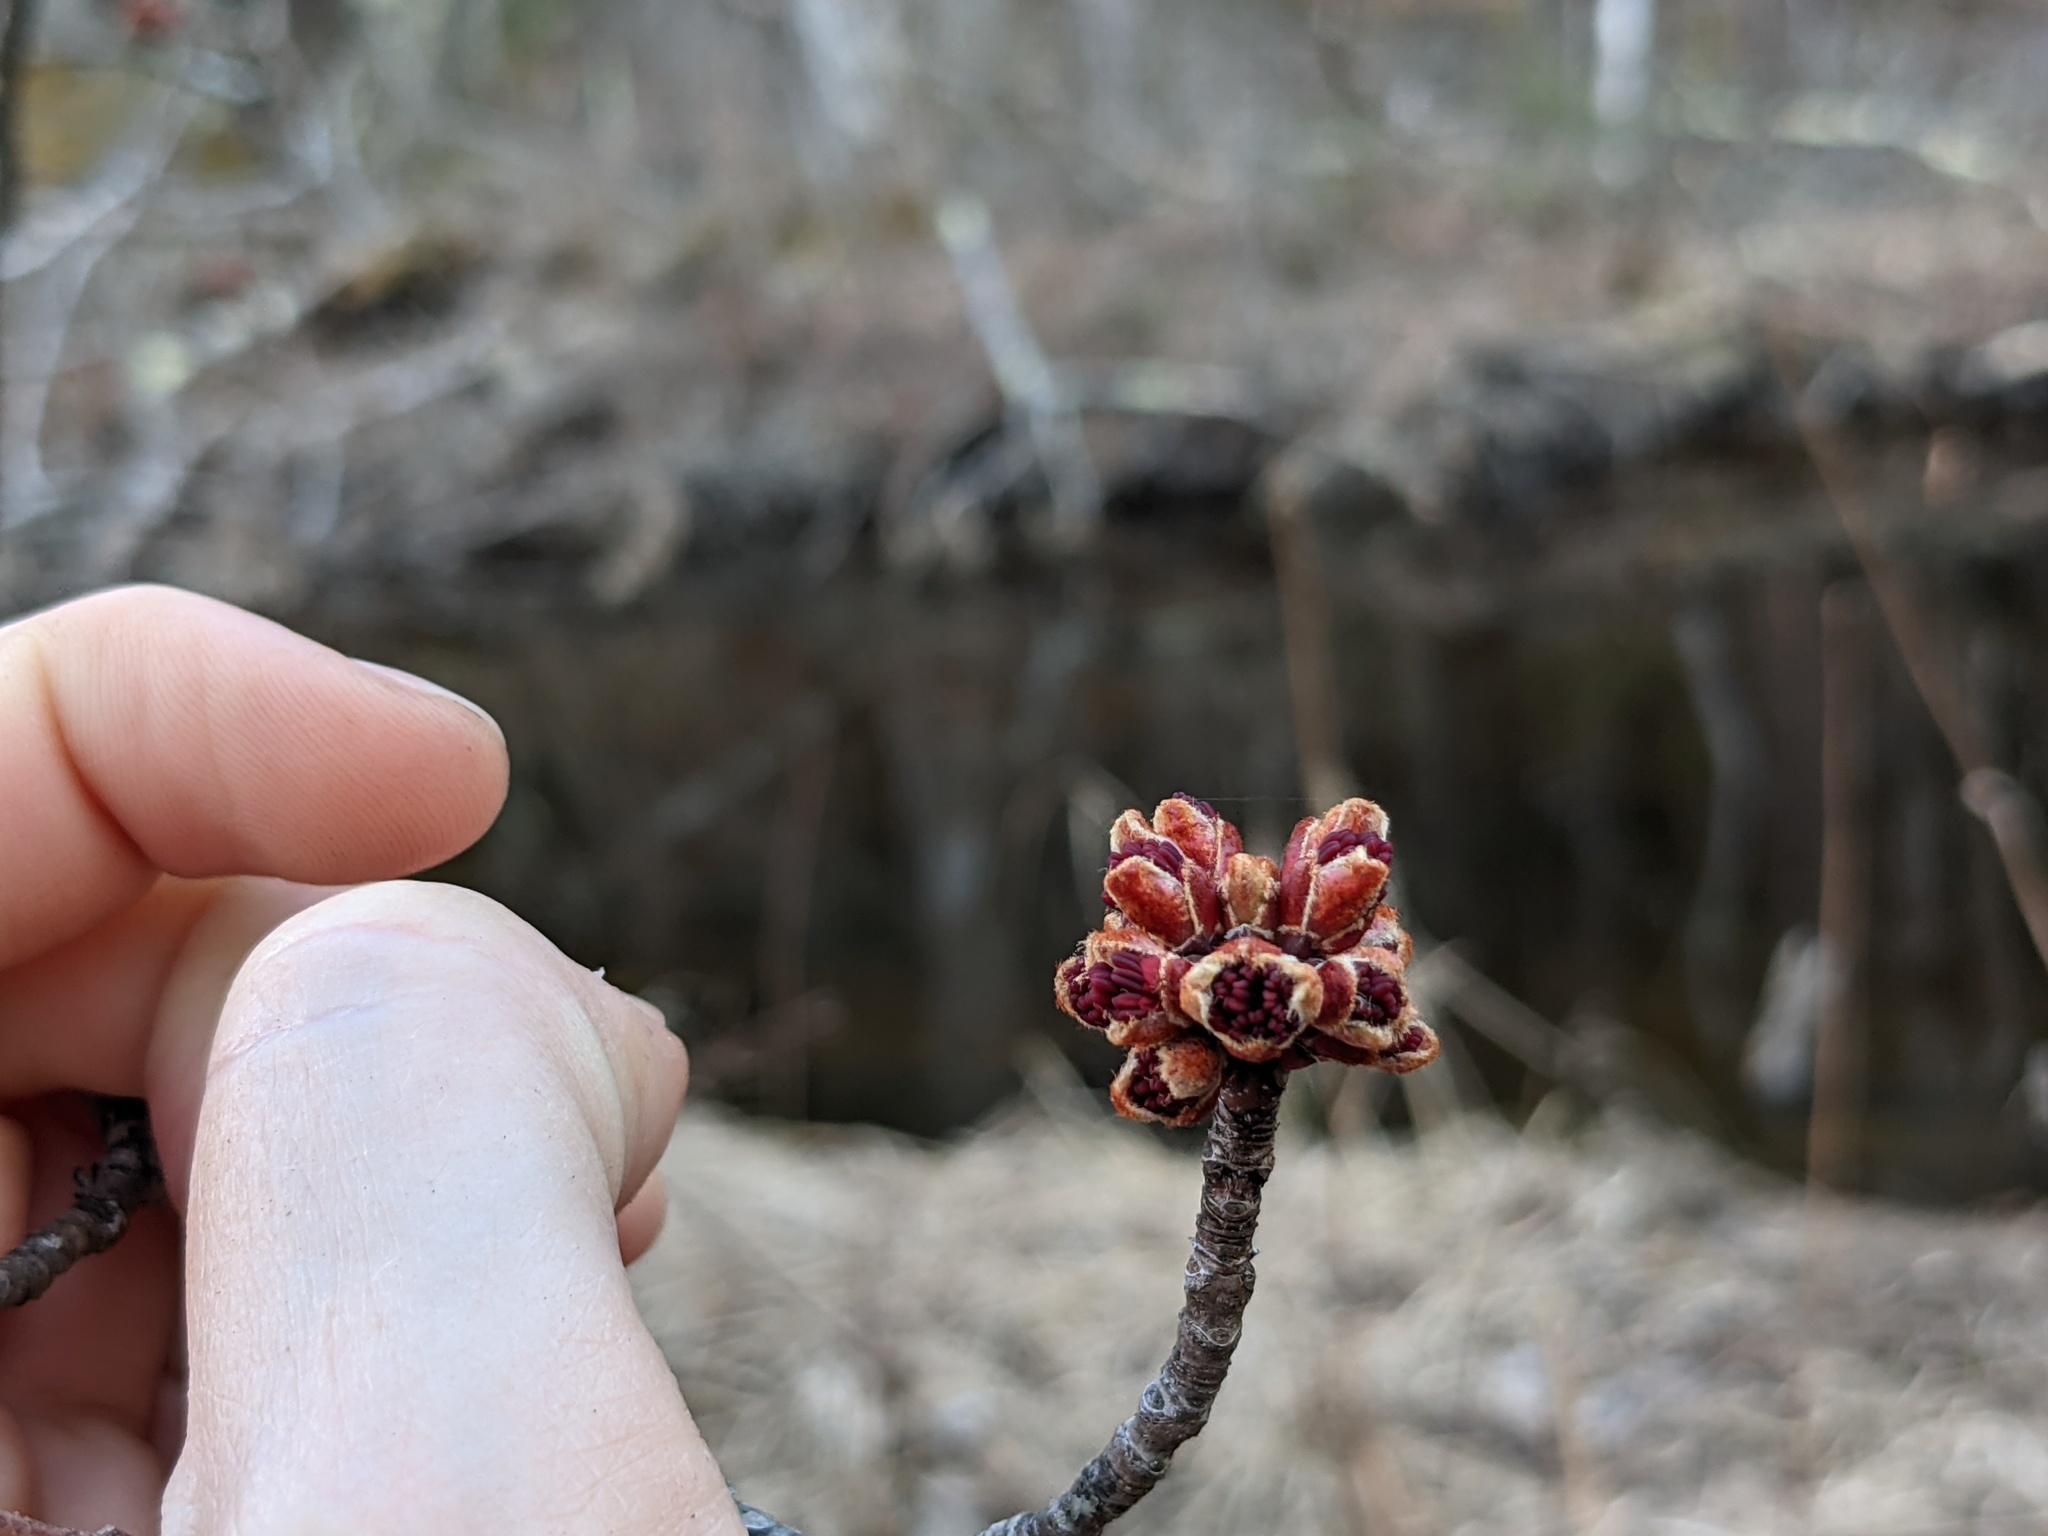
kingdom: Plantae
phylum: Tracheophyta
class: Magnoliopsida
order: Sapindales
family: Sapindaceae
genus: Acer
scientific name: Acer
